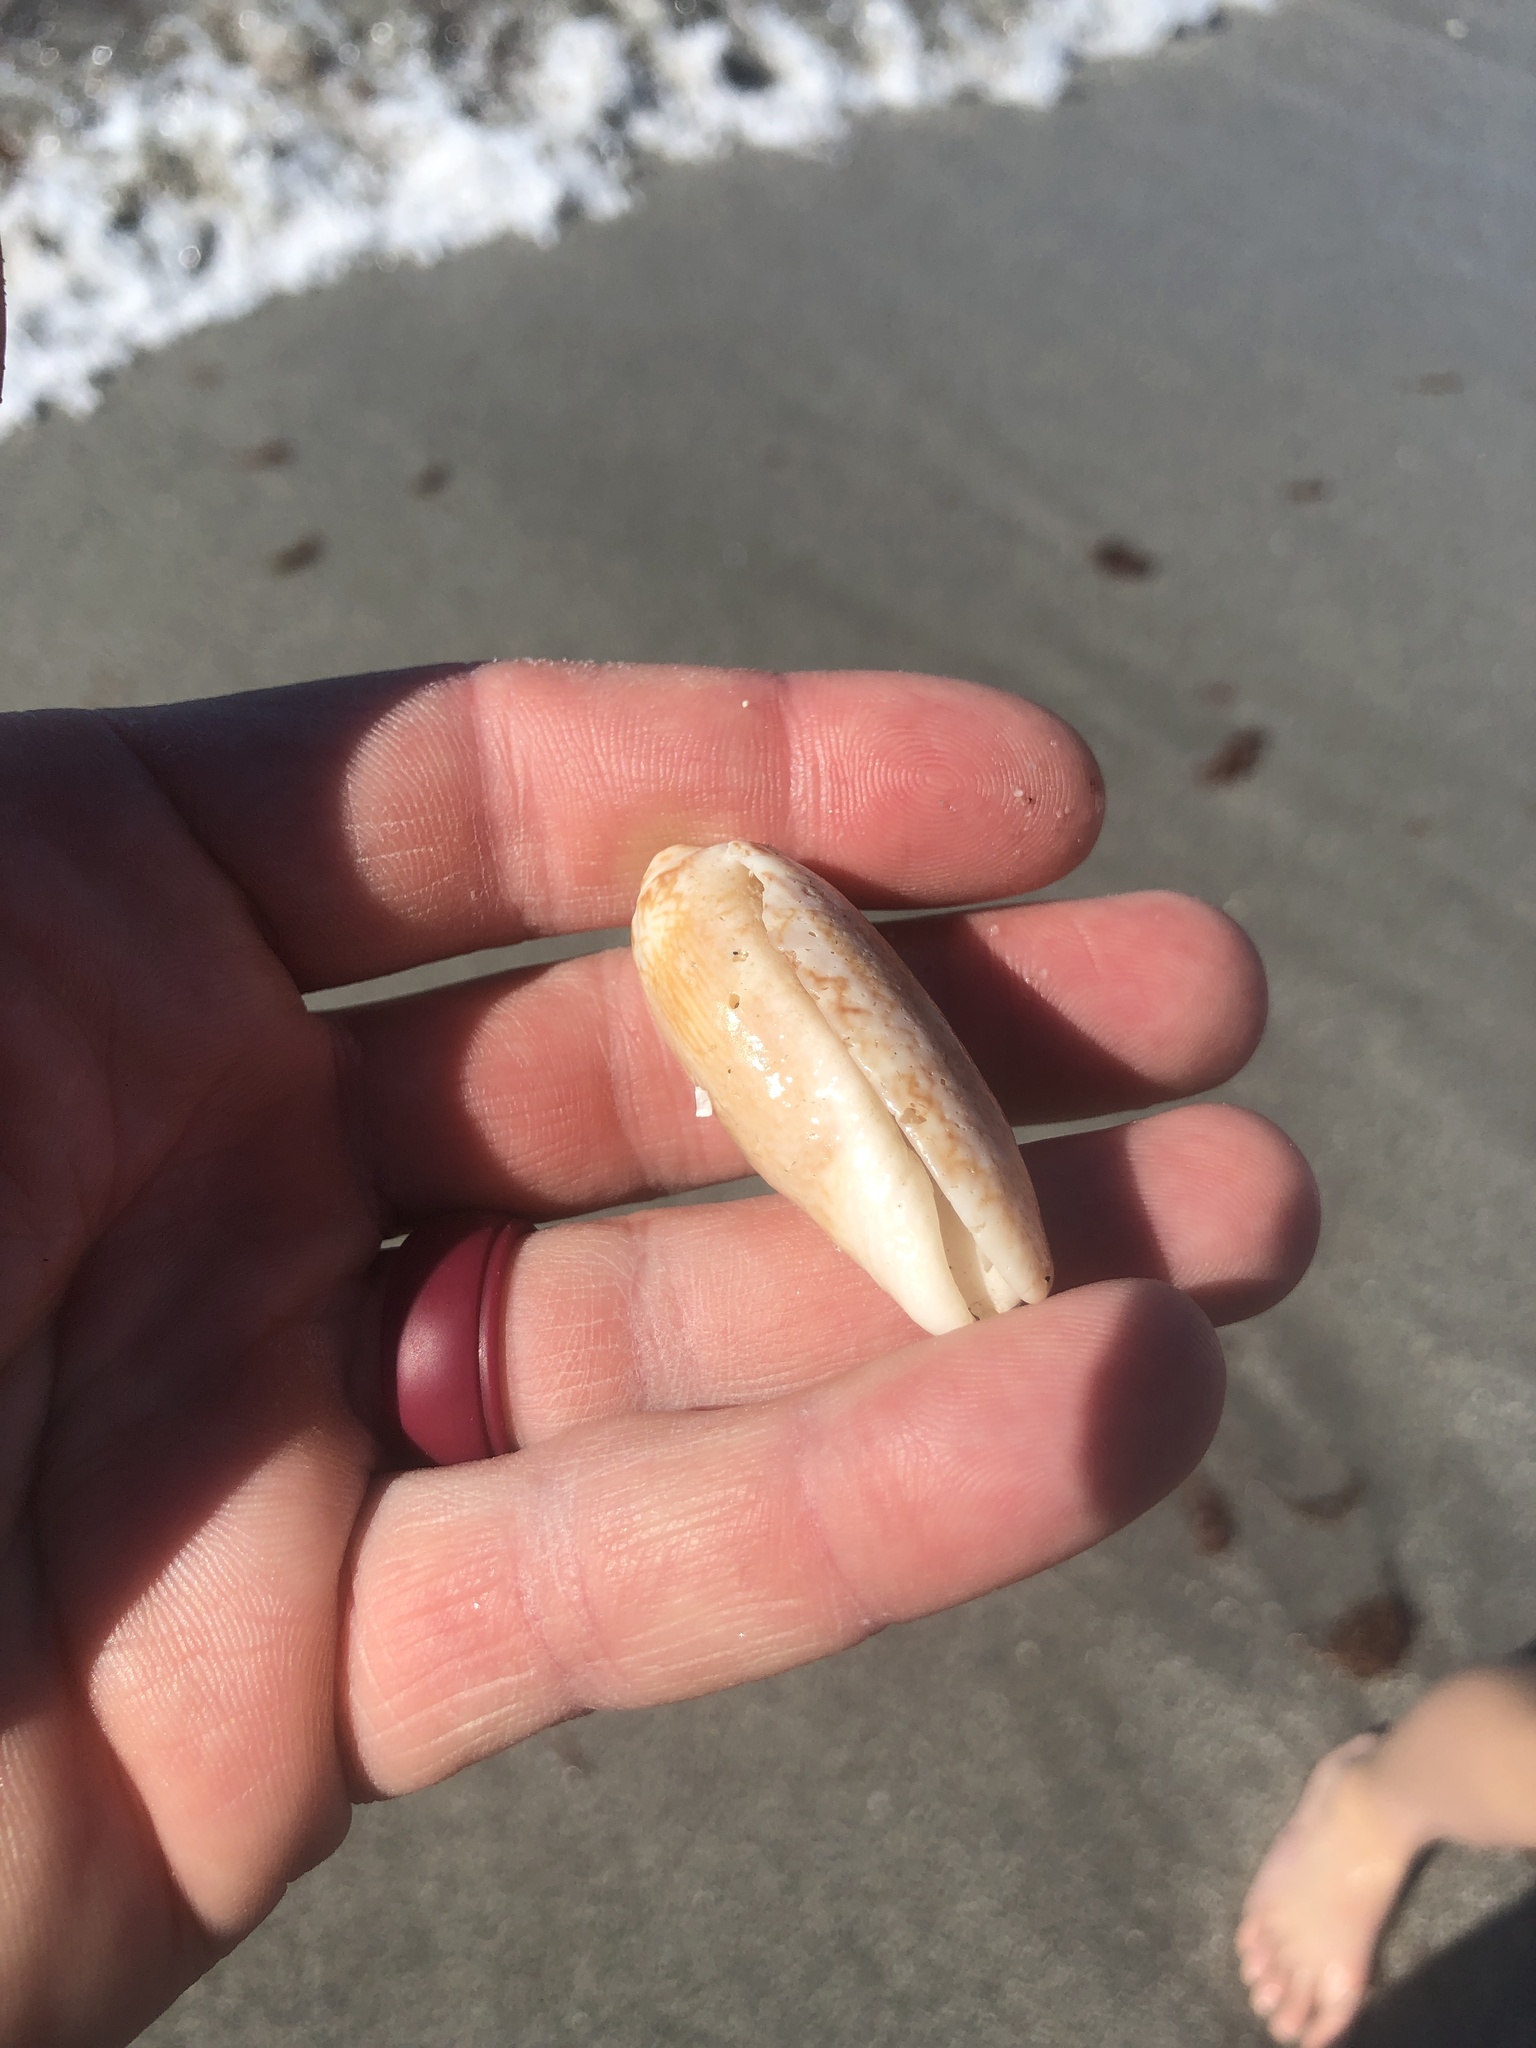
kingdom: Animalia
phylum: Mollusca
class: Gastropoda
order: Neogastropoda
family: Olividae
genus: Oliva
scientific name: Oliva sayana
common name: Lettered olive
